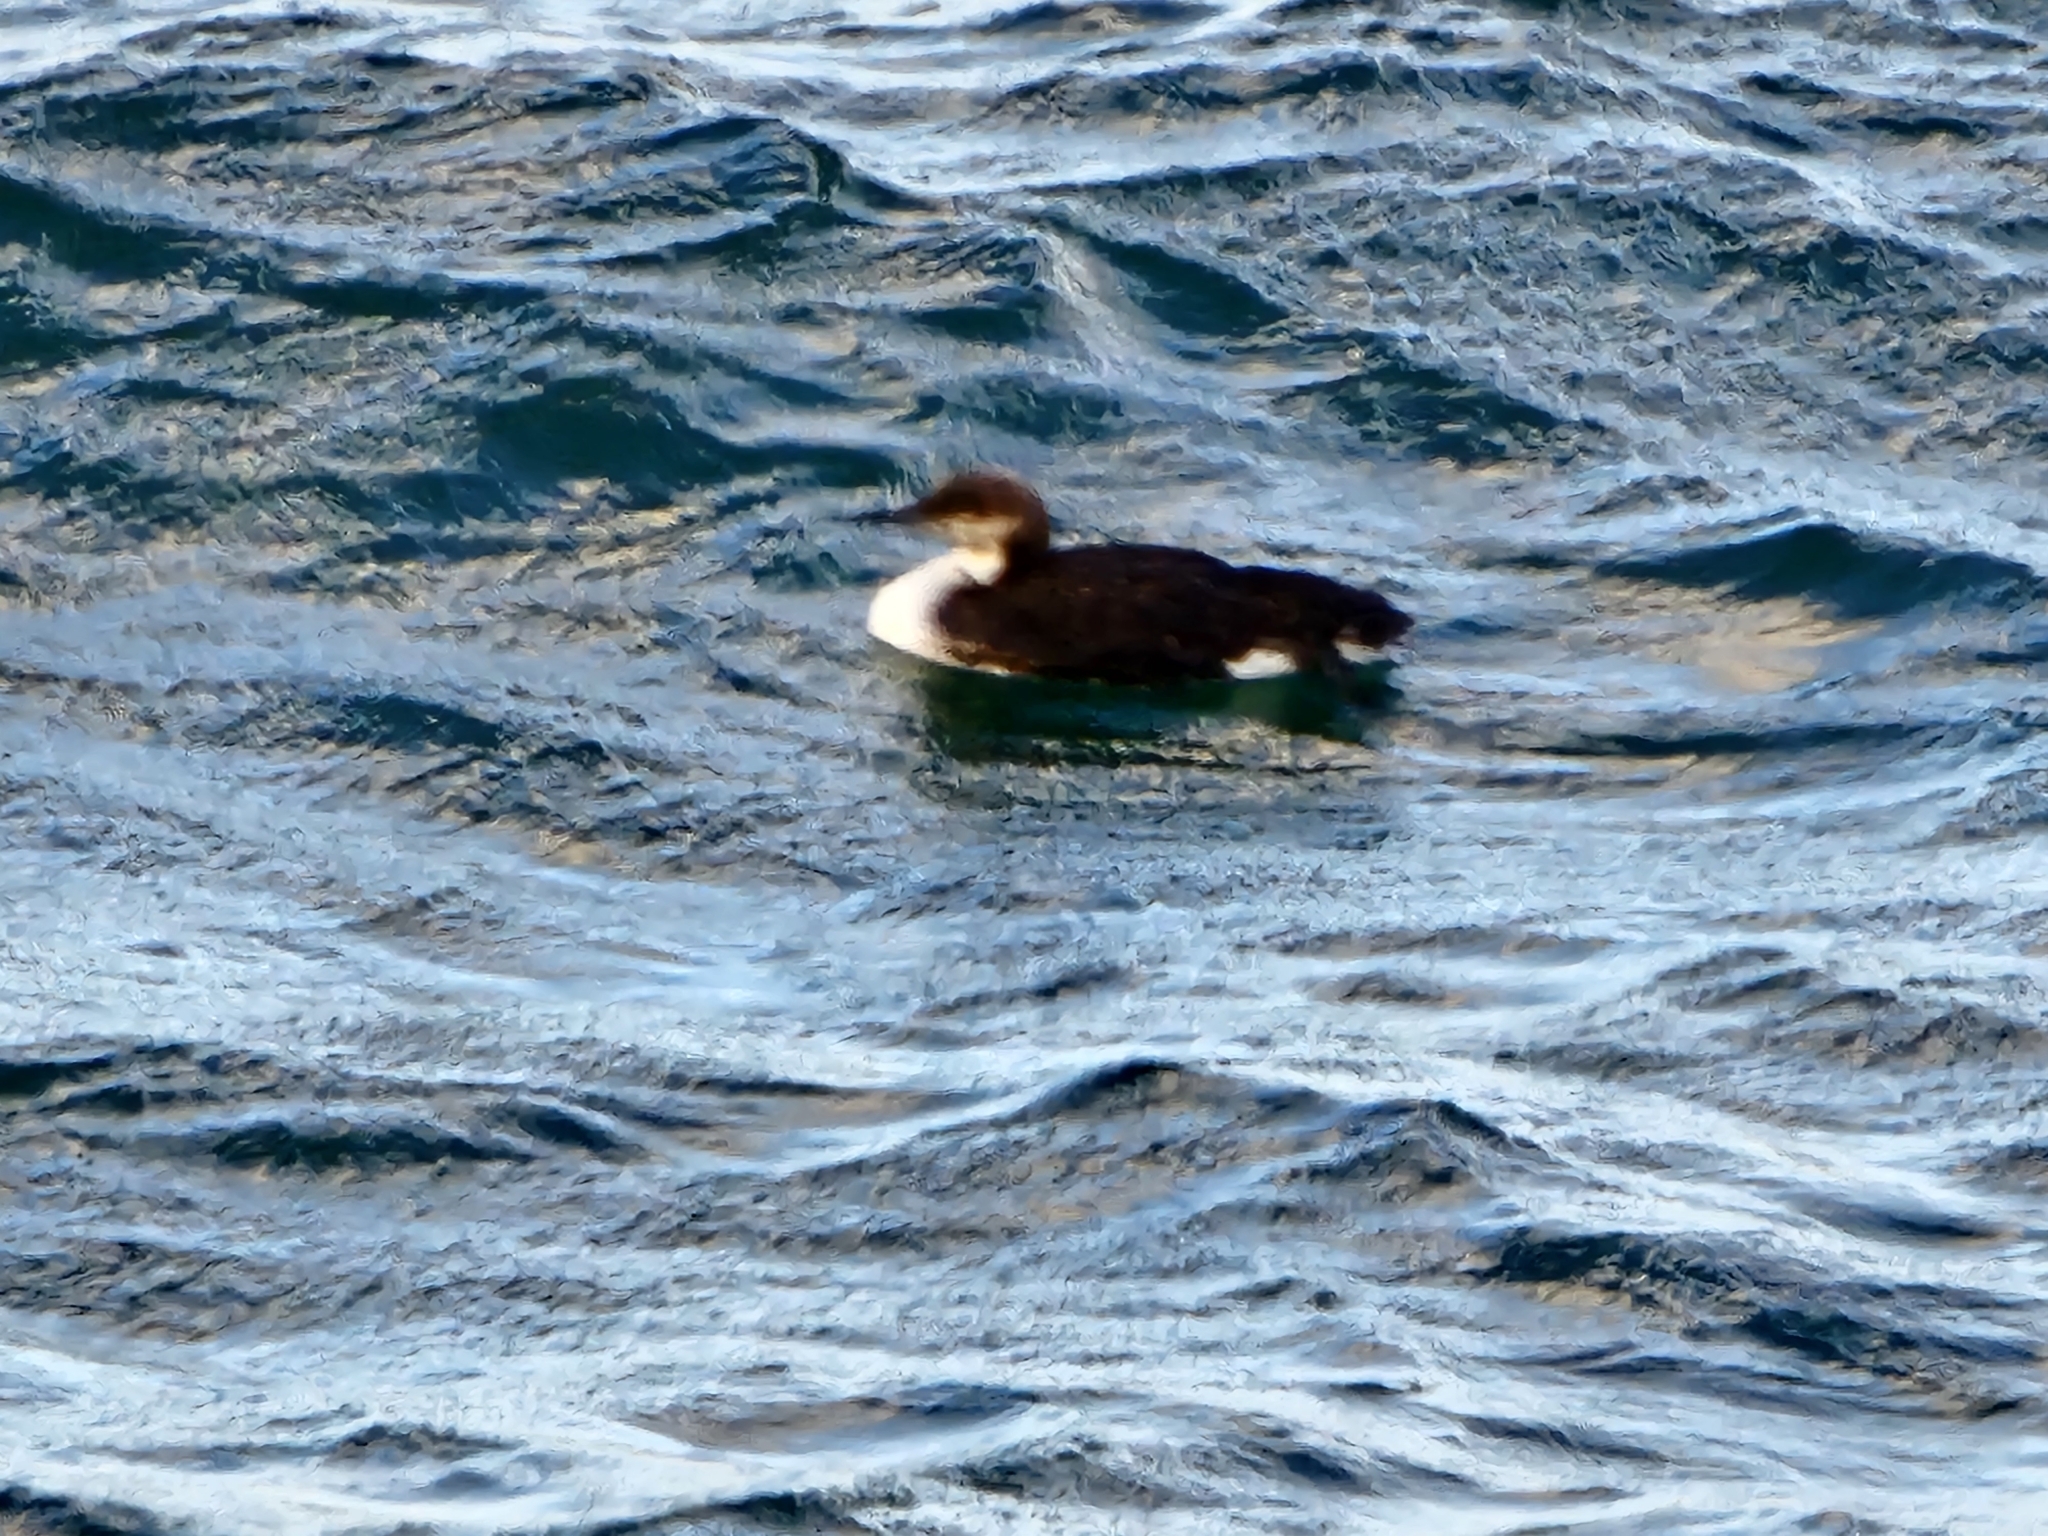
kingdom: Animalia
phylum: Chordata
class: Aves
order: Gaviiformes
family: Gaviidae
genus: Gavia
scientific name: Gavia pacifica
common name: Pacific loon
